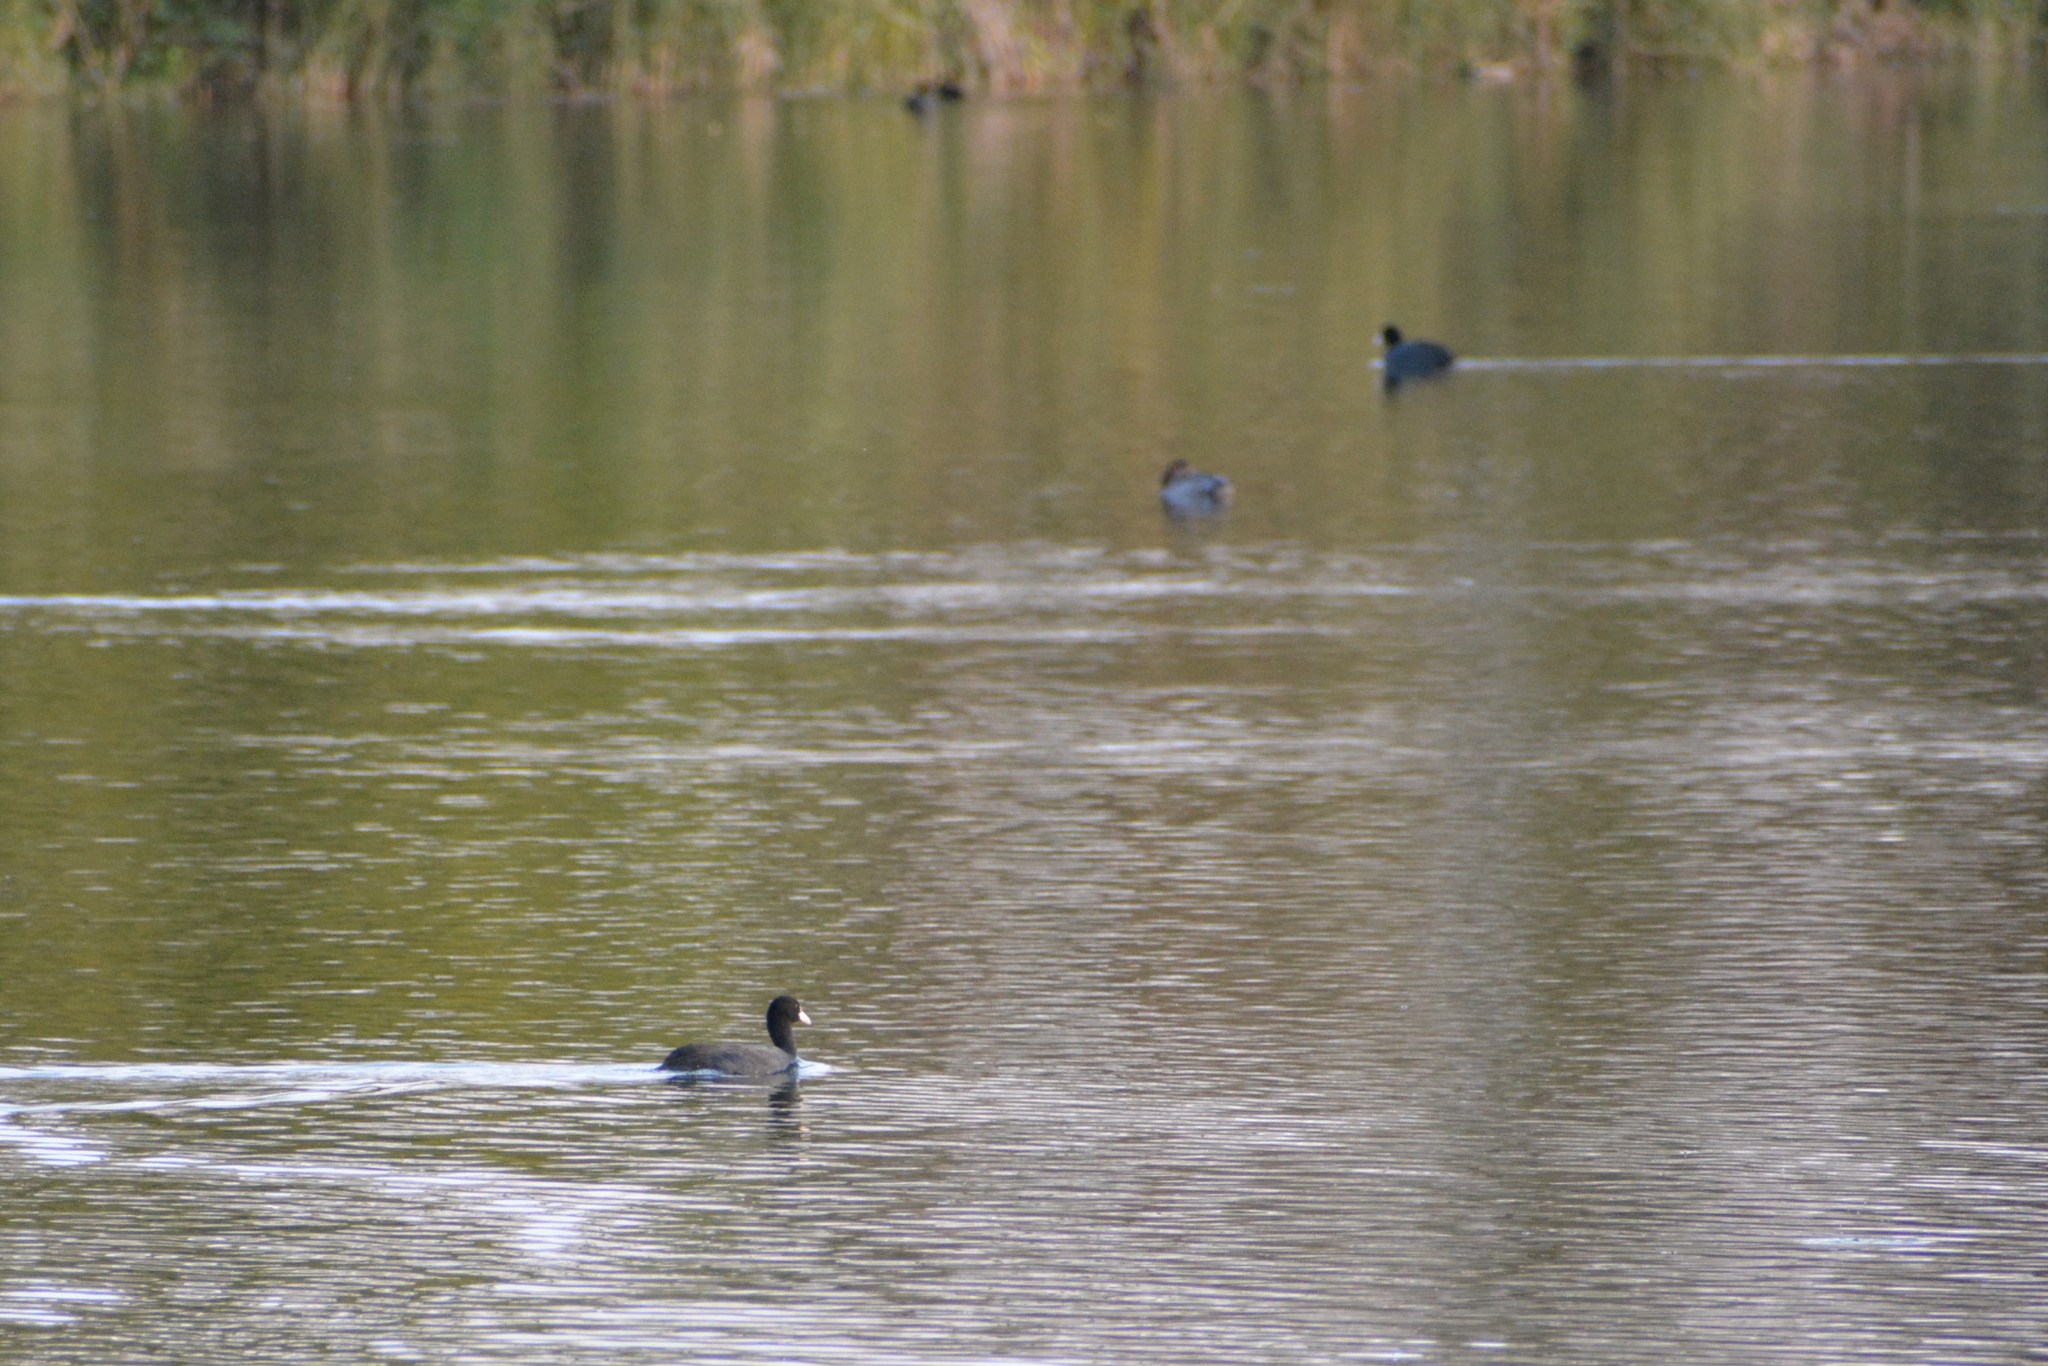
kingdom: Animalia
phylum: Chordata
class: Aves
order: Gruiformes
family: Rallidae
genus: Fulica
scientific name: Fulica atra
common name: Eurasian coot
